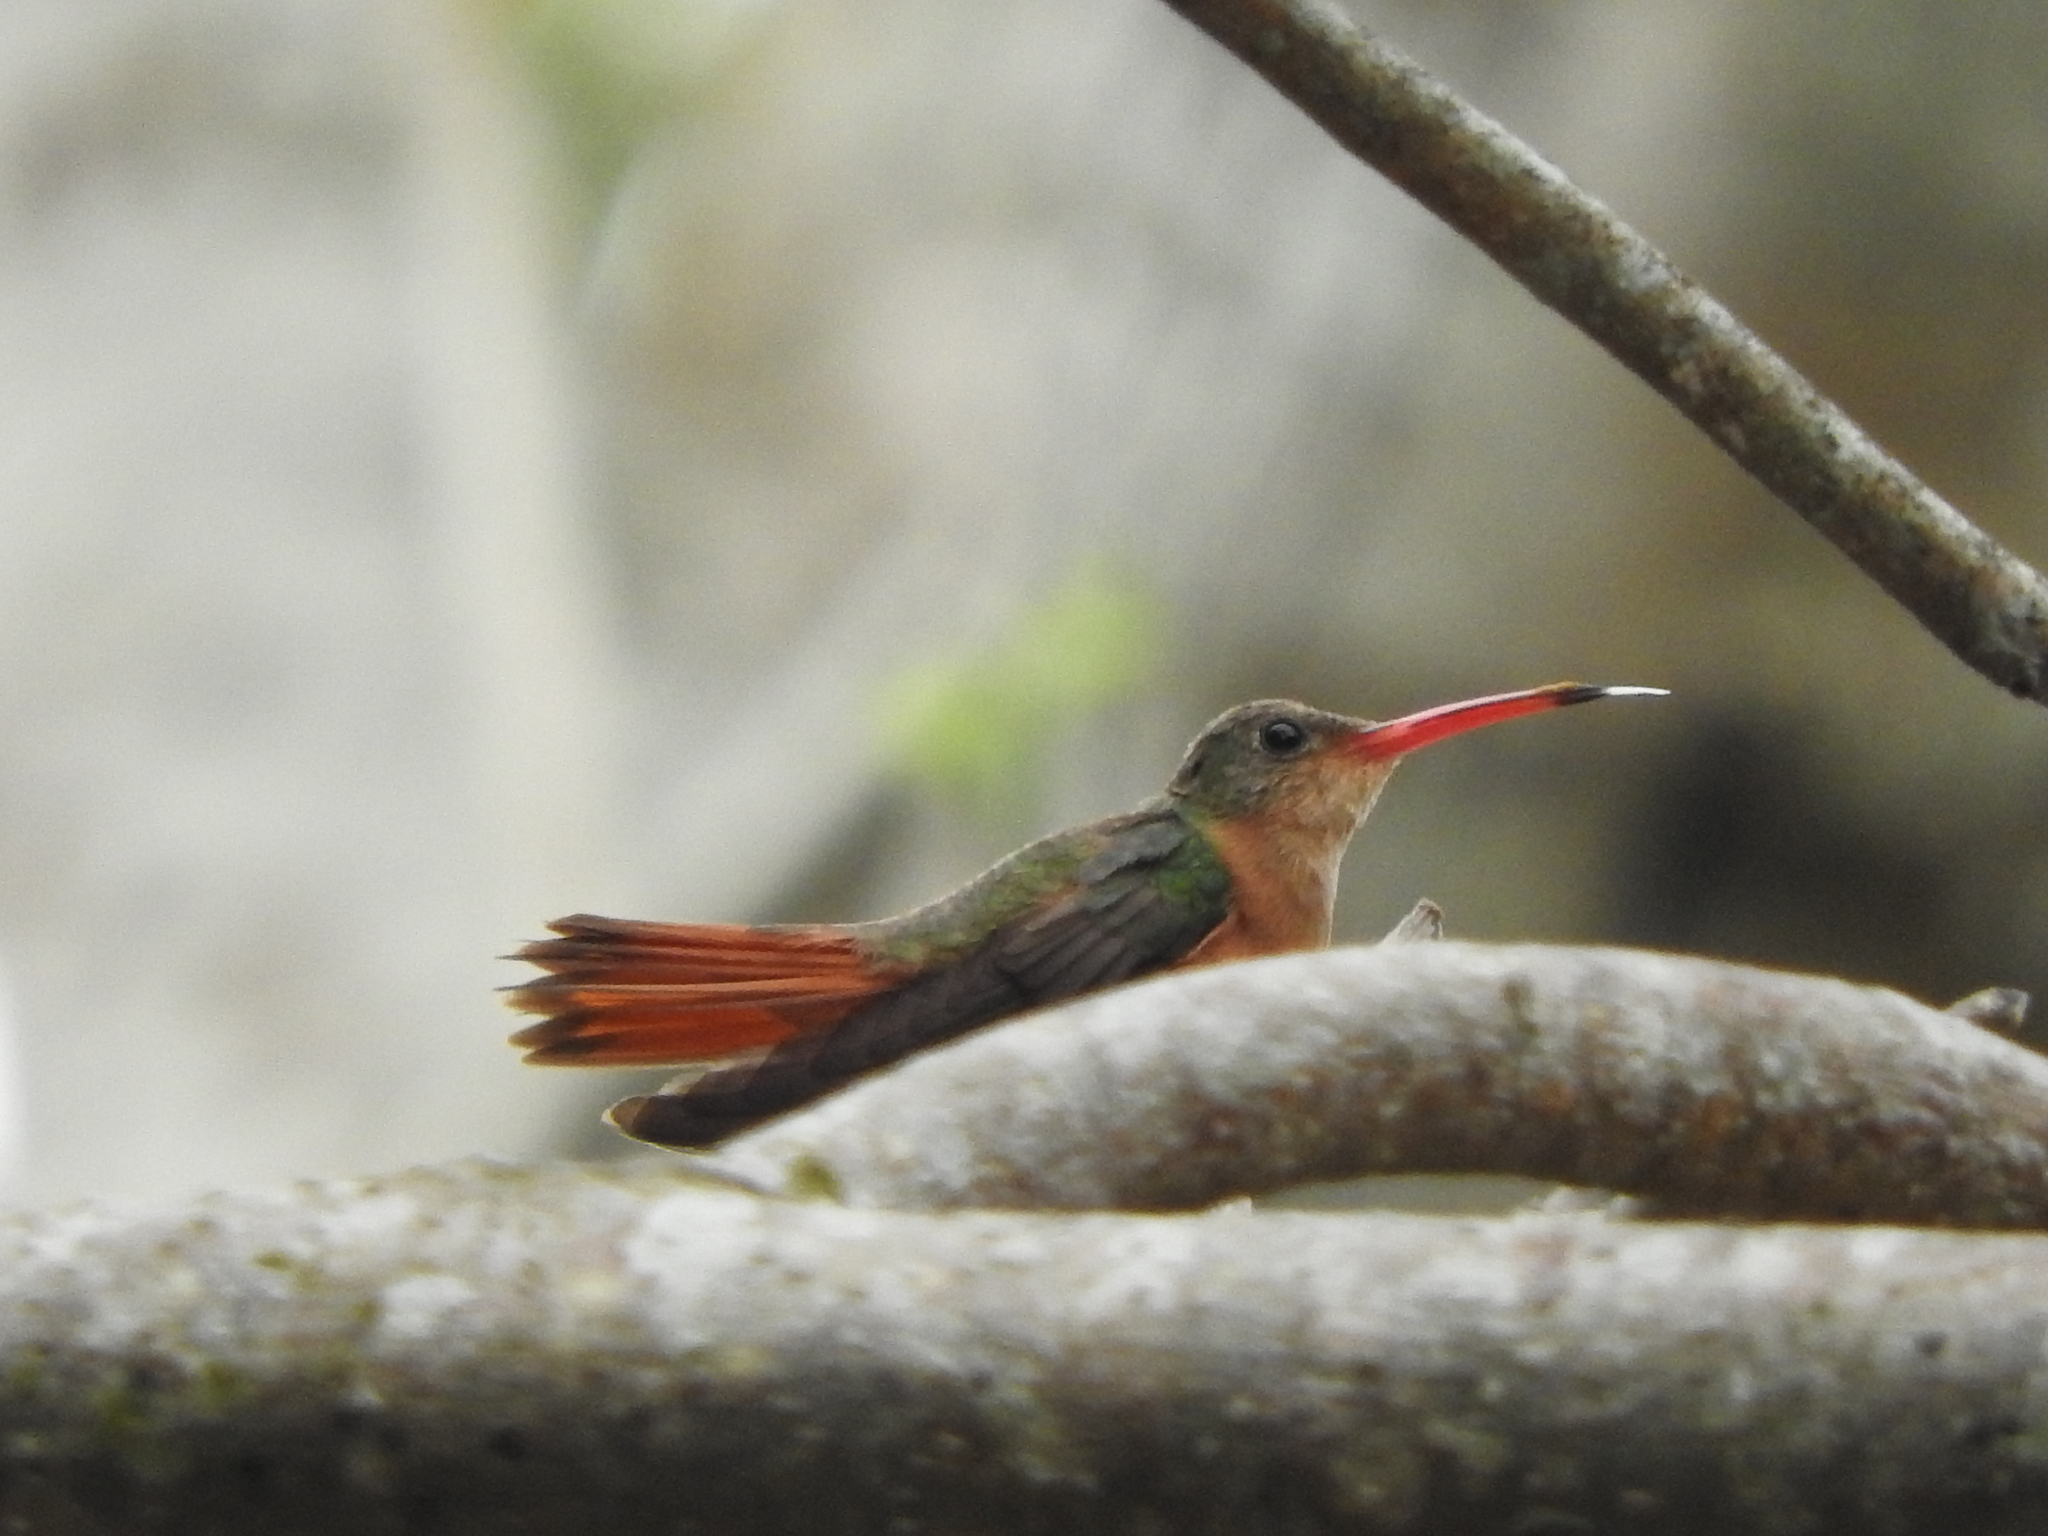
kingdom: Animalia
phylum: Chordata
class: Aves
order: Apodiformes
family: Trochilidae
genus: Amazilia
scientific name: Amazilia rutila
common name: Cinnamon hummingbird
